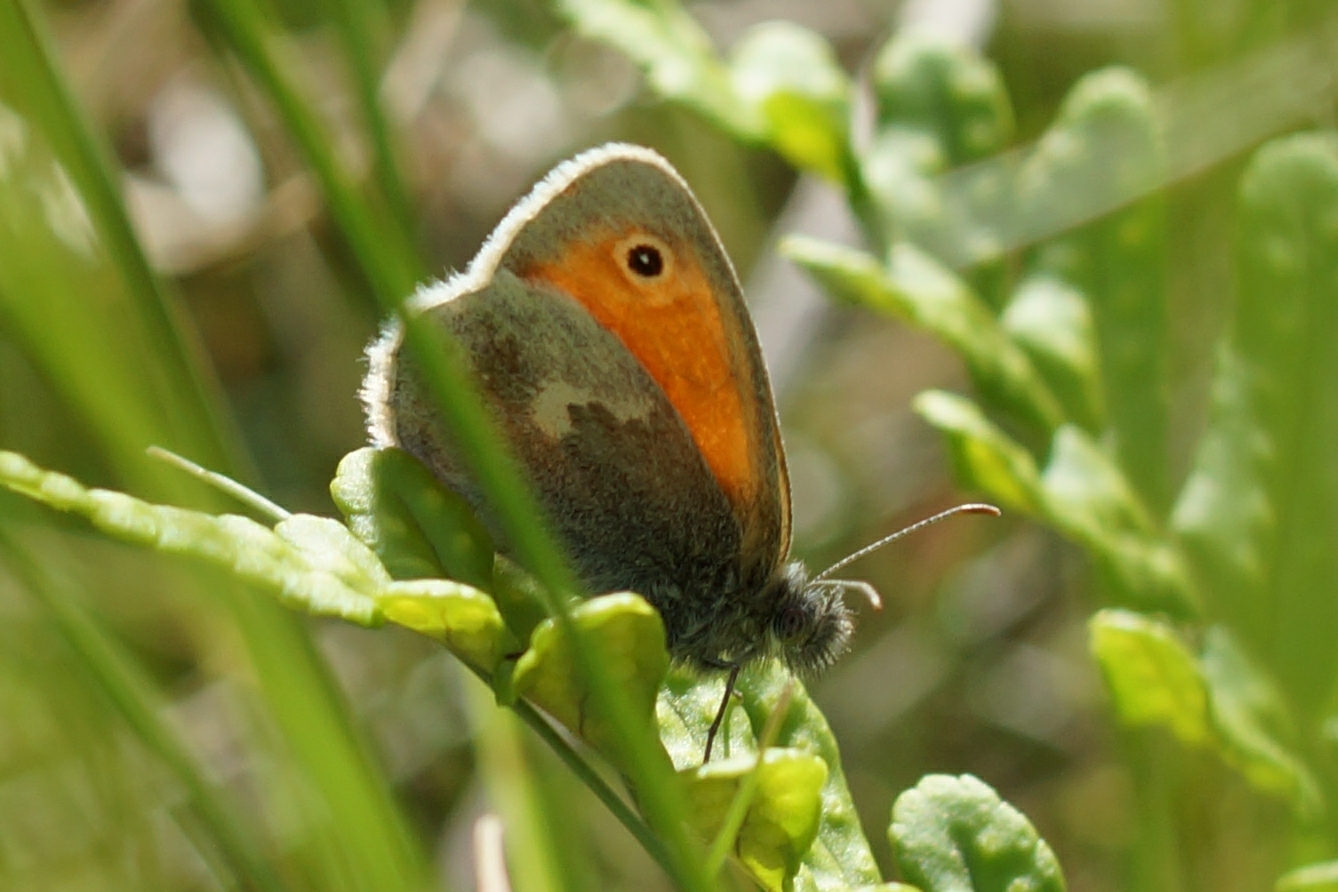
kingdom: Animalia
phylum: Arthropoda
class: Insecta
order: Lepidoptera
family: Nymphalidae
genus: Coenonympha
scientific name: Coenonympha pamphilus
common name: Small heath
